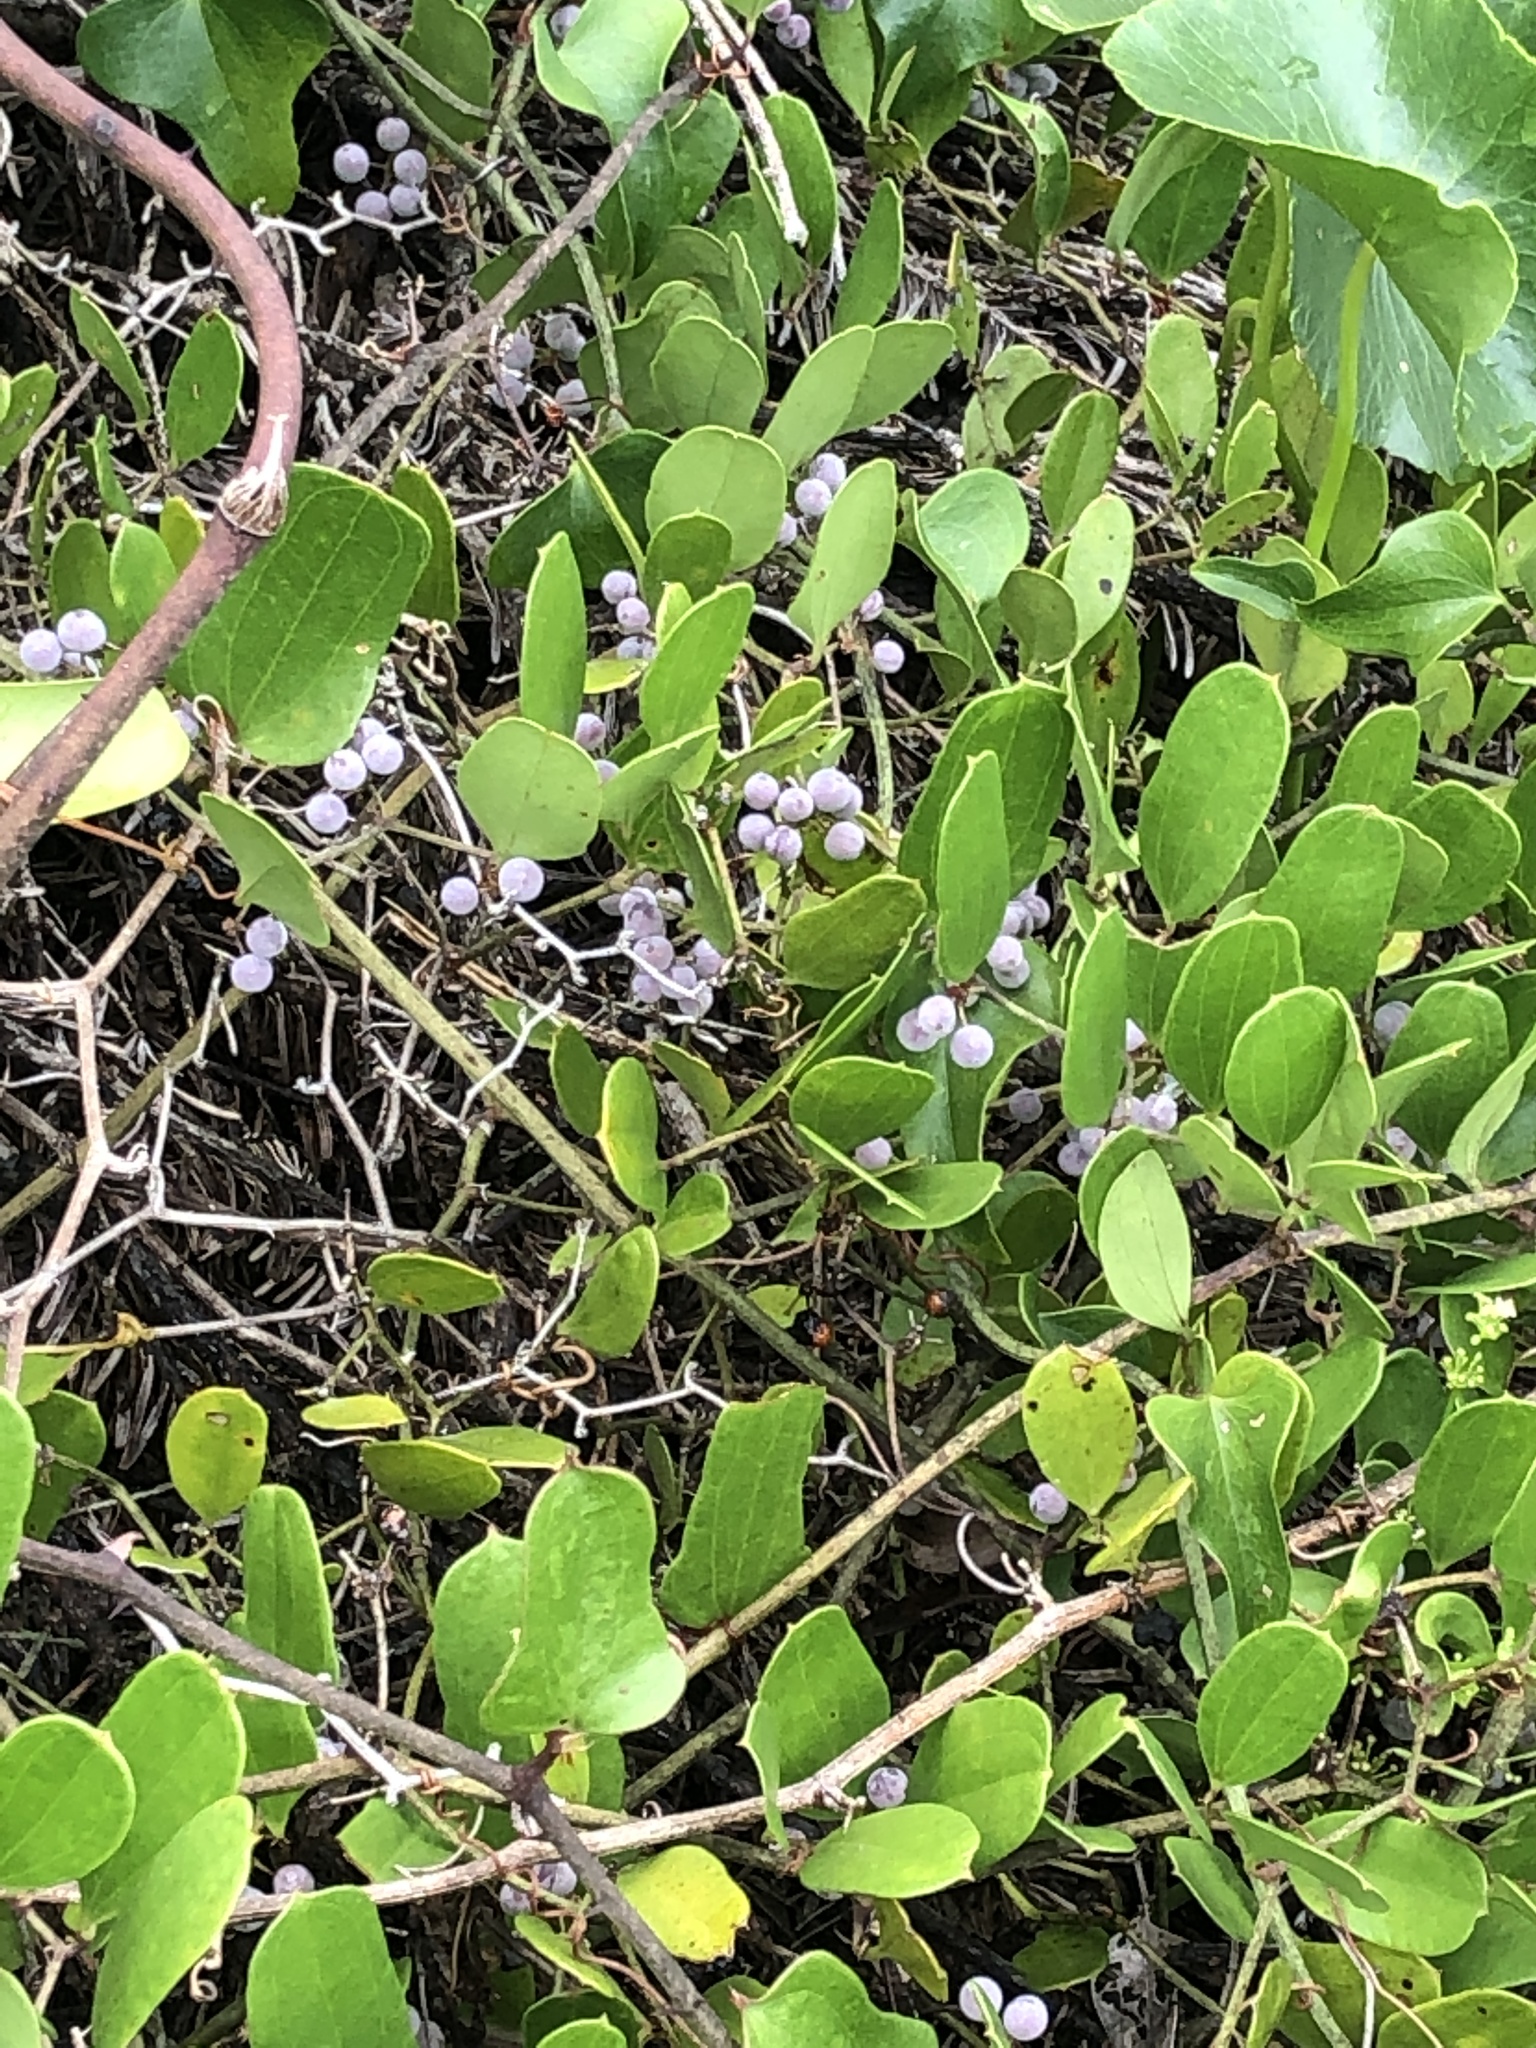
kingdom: Plantae
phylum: Tracheophyta
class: Liliopsida
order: Liliales
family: Smilacaceae
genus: Smilax
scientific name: Smilax auriculata
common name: Wild bamboo
